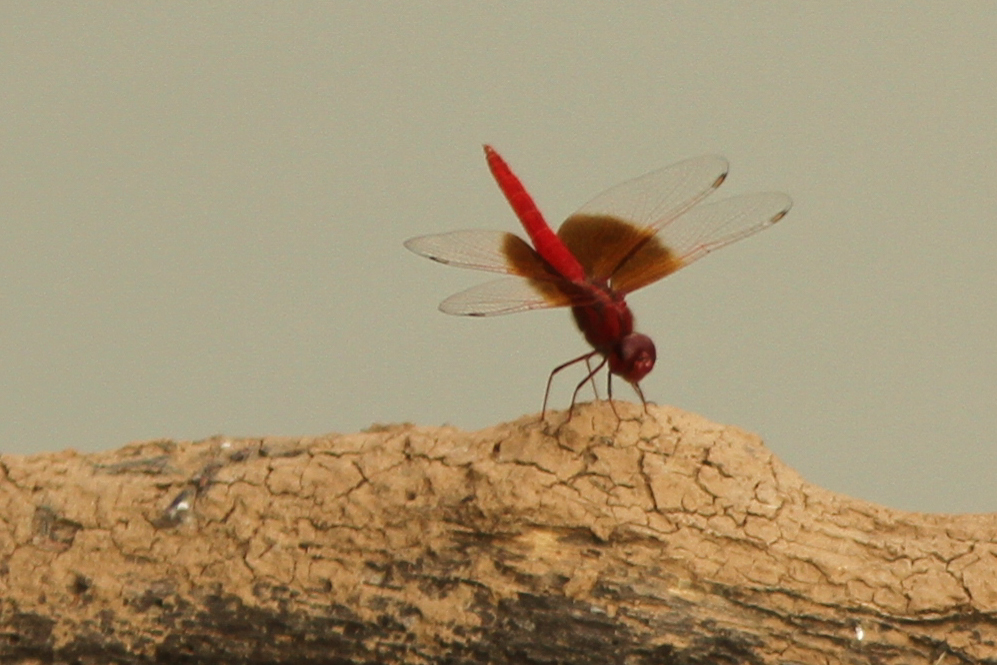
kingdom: Animalia
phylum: Arthropoda
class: Insecta
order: Odonata
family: Libellulidae
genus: Brachythemis
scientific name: Brachythemis lacustris
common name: Red groundling
